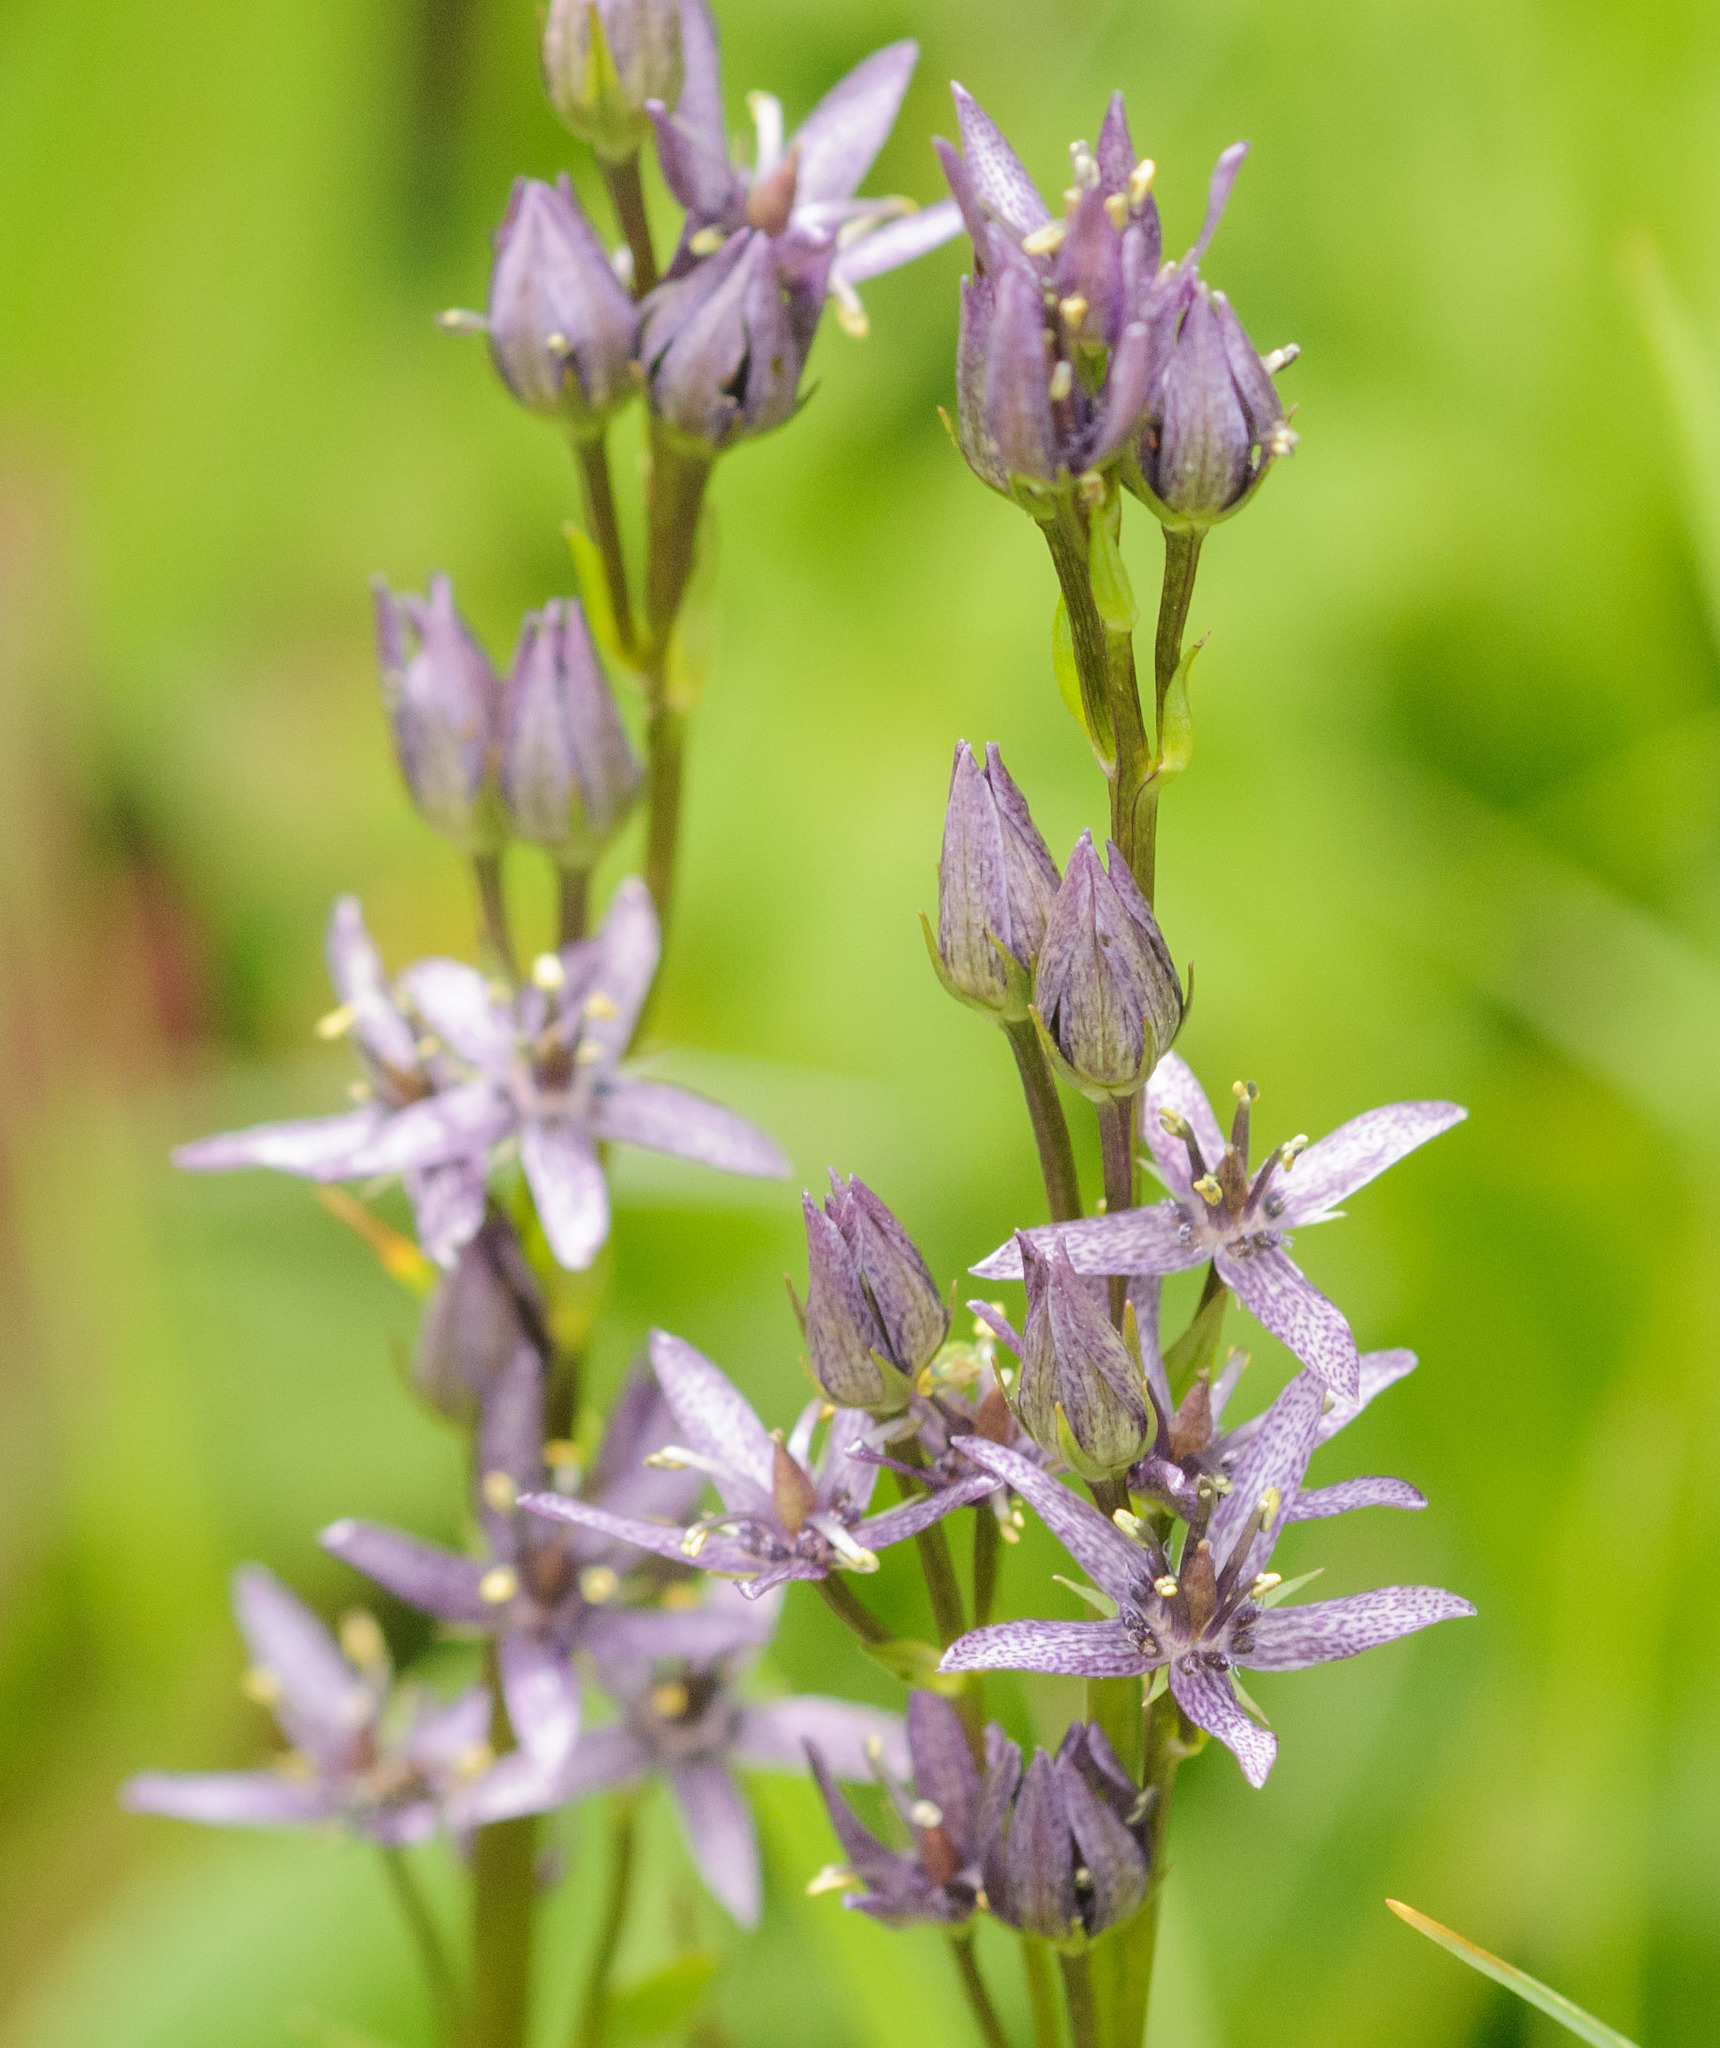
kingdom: Plantae
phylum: Tracheophyta
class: Magnoliopsida
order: Gentianales
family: Gentianaceae
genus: Swertia
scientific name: Swertia perennis
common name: Alpine bog swertia
